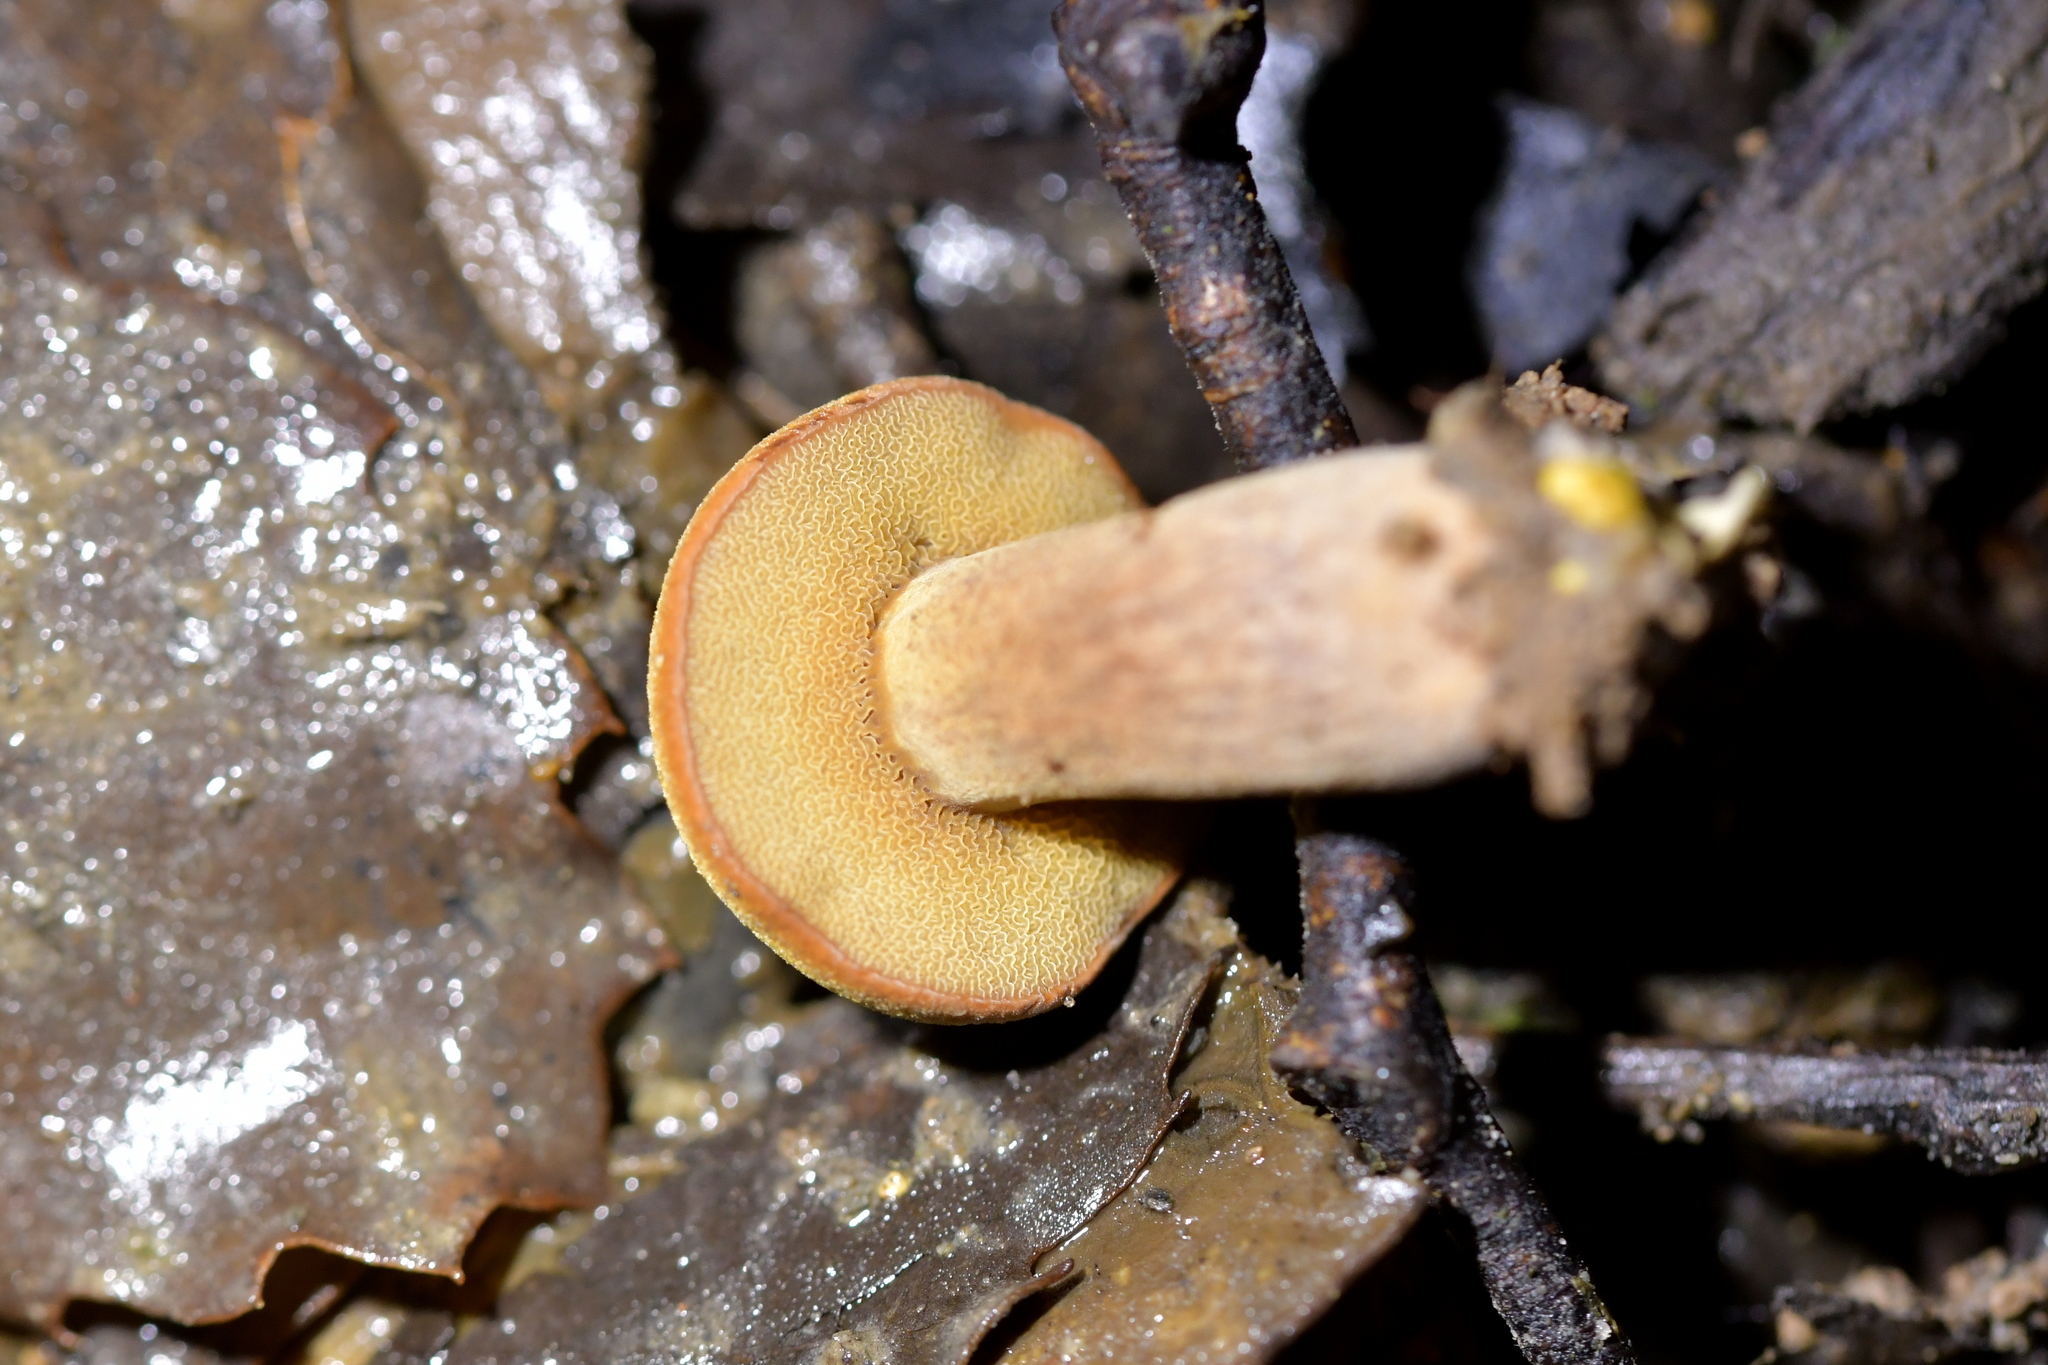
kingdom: Fungi
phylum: Basidiomycota
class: Agaricomycetes
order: Boletales
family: Boletaceae
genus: Chalciporus
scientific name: Chalciporus piperatus
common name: Peppery bolete
